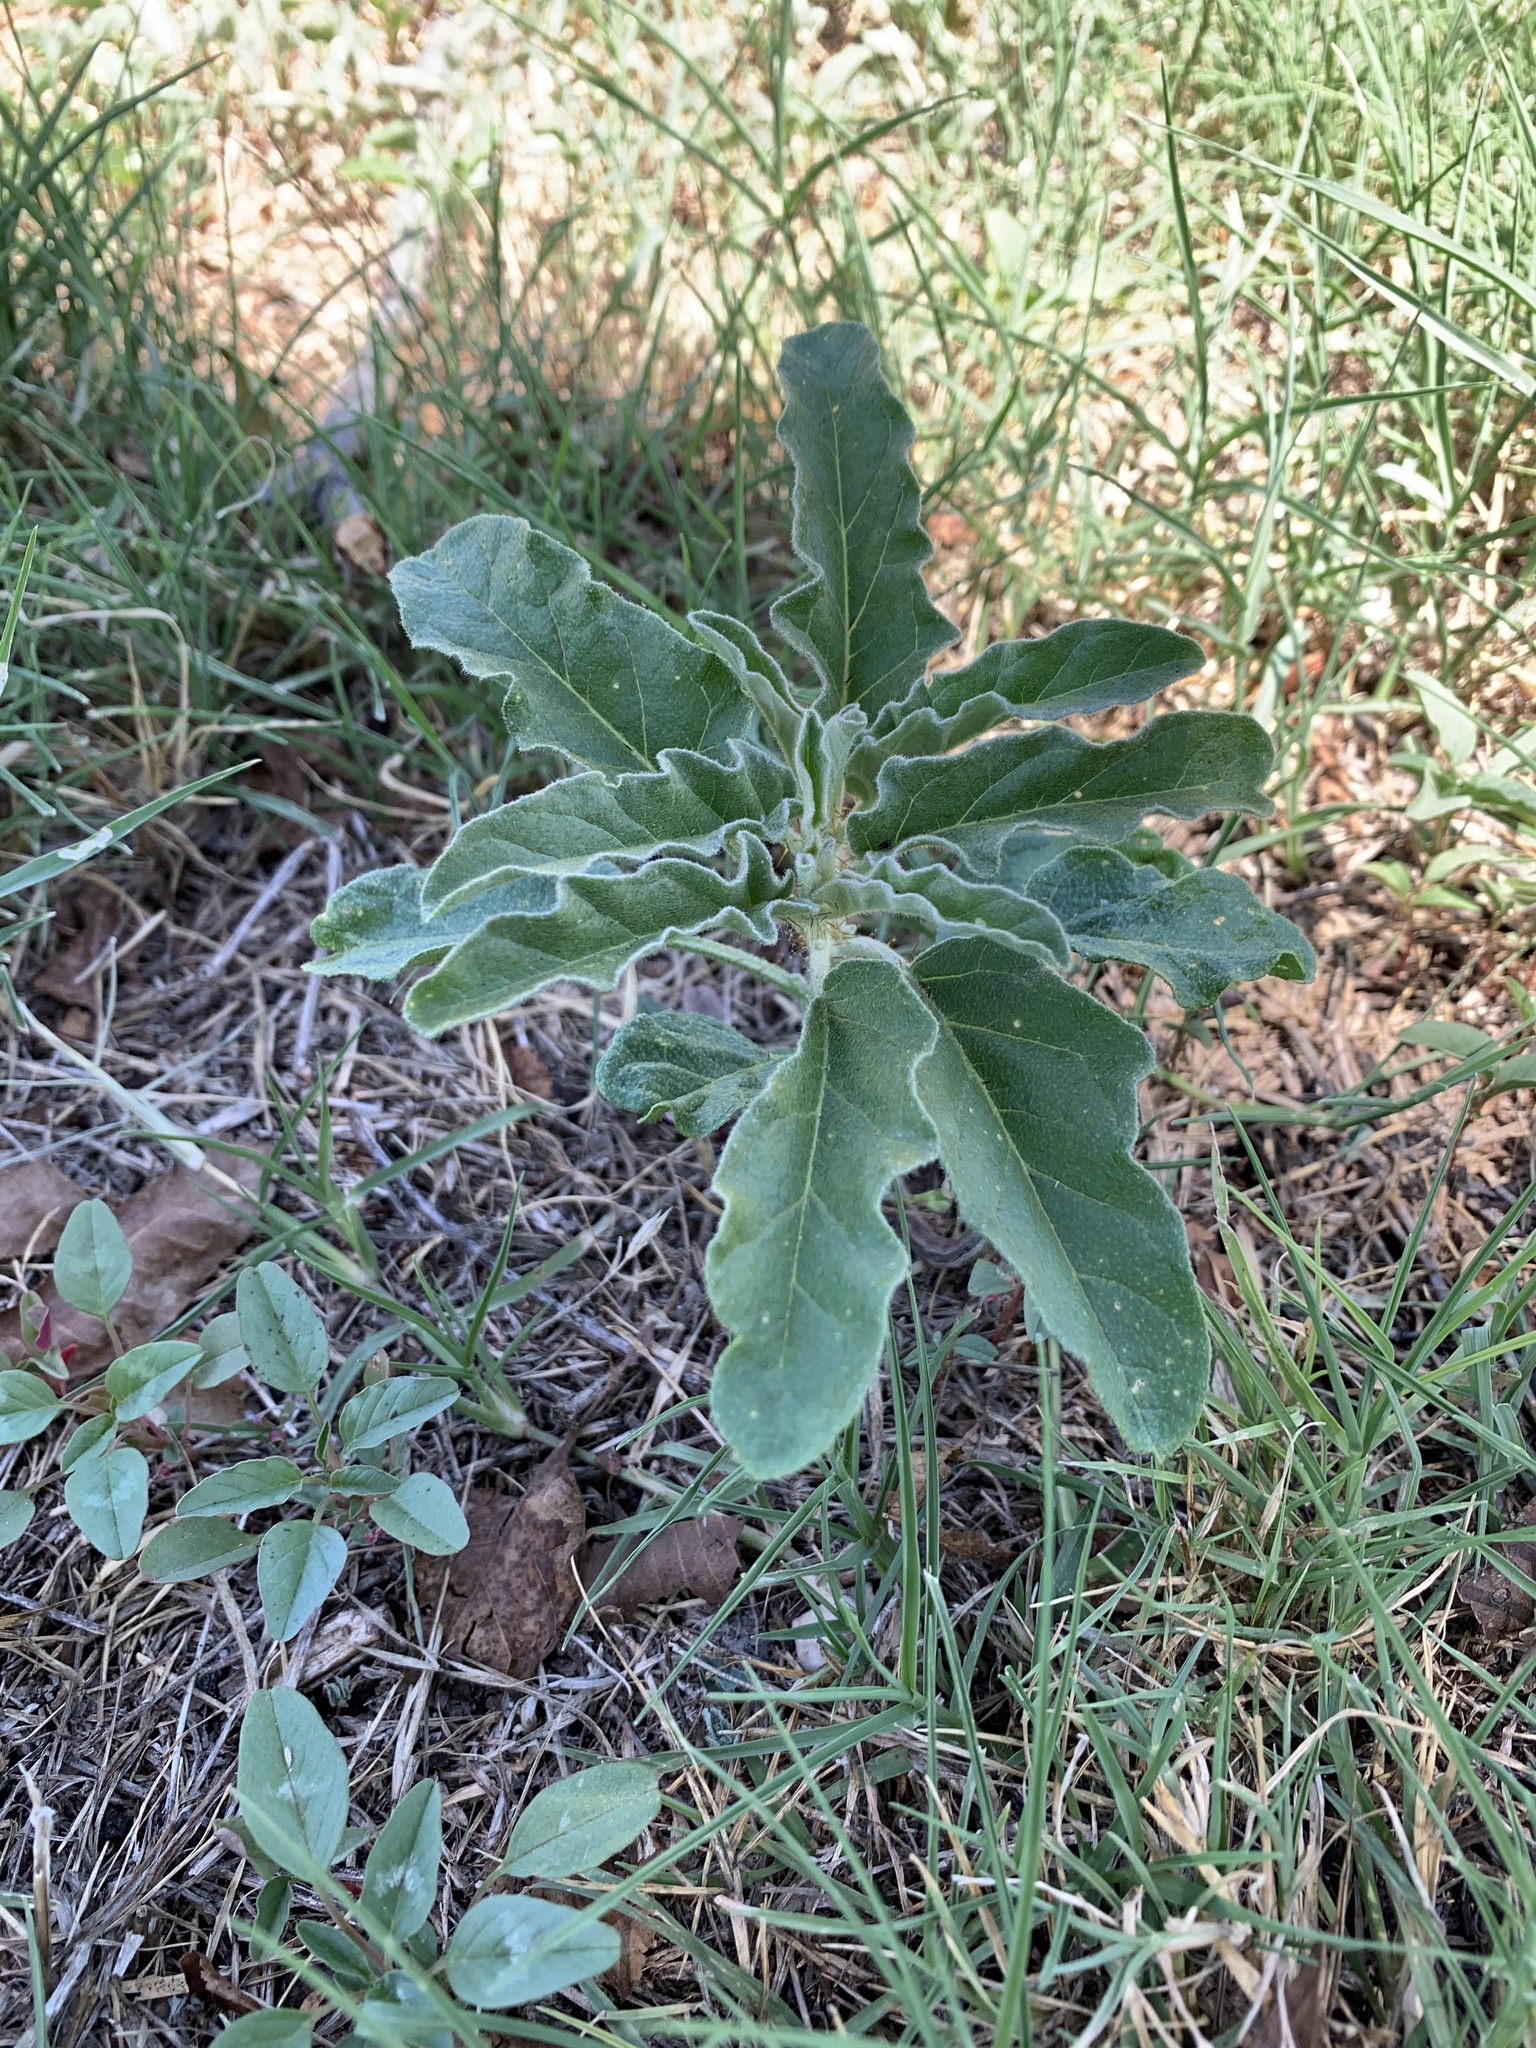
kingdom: Plantae
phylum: Tracheophyta
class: Magnoliopsida
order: Solanales
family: Solanaceae
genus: Solanum
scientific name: Solanum elaeagnifolium
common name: Silverleaf nightshade
